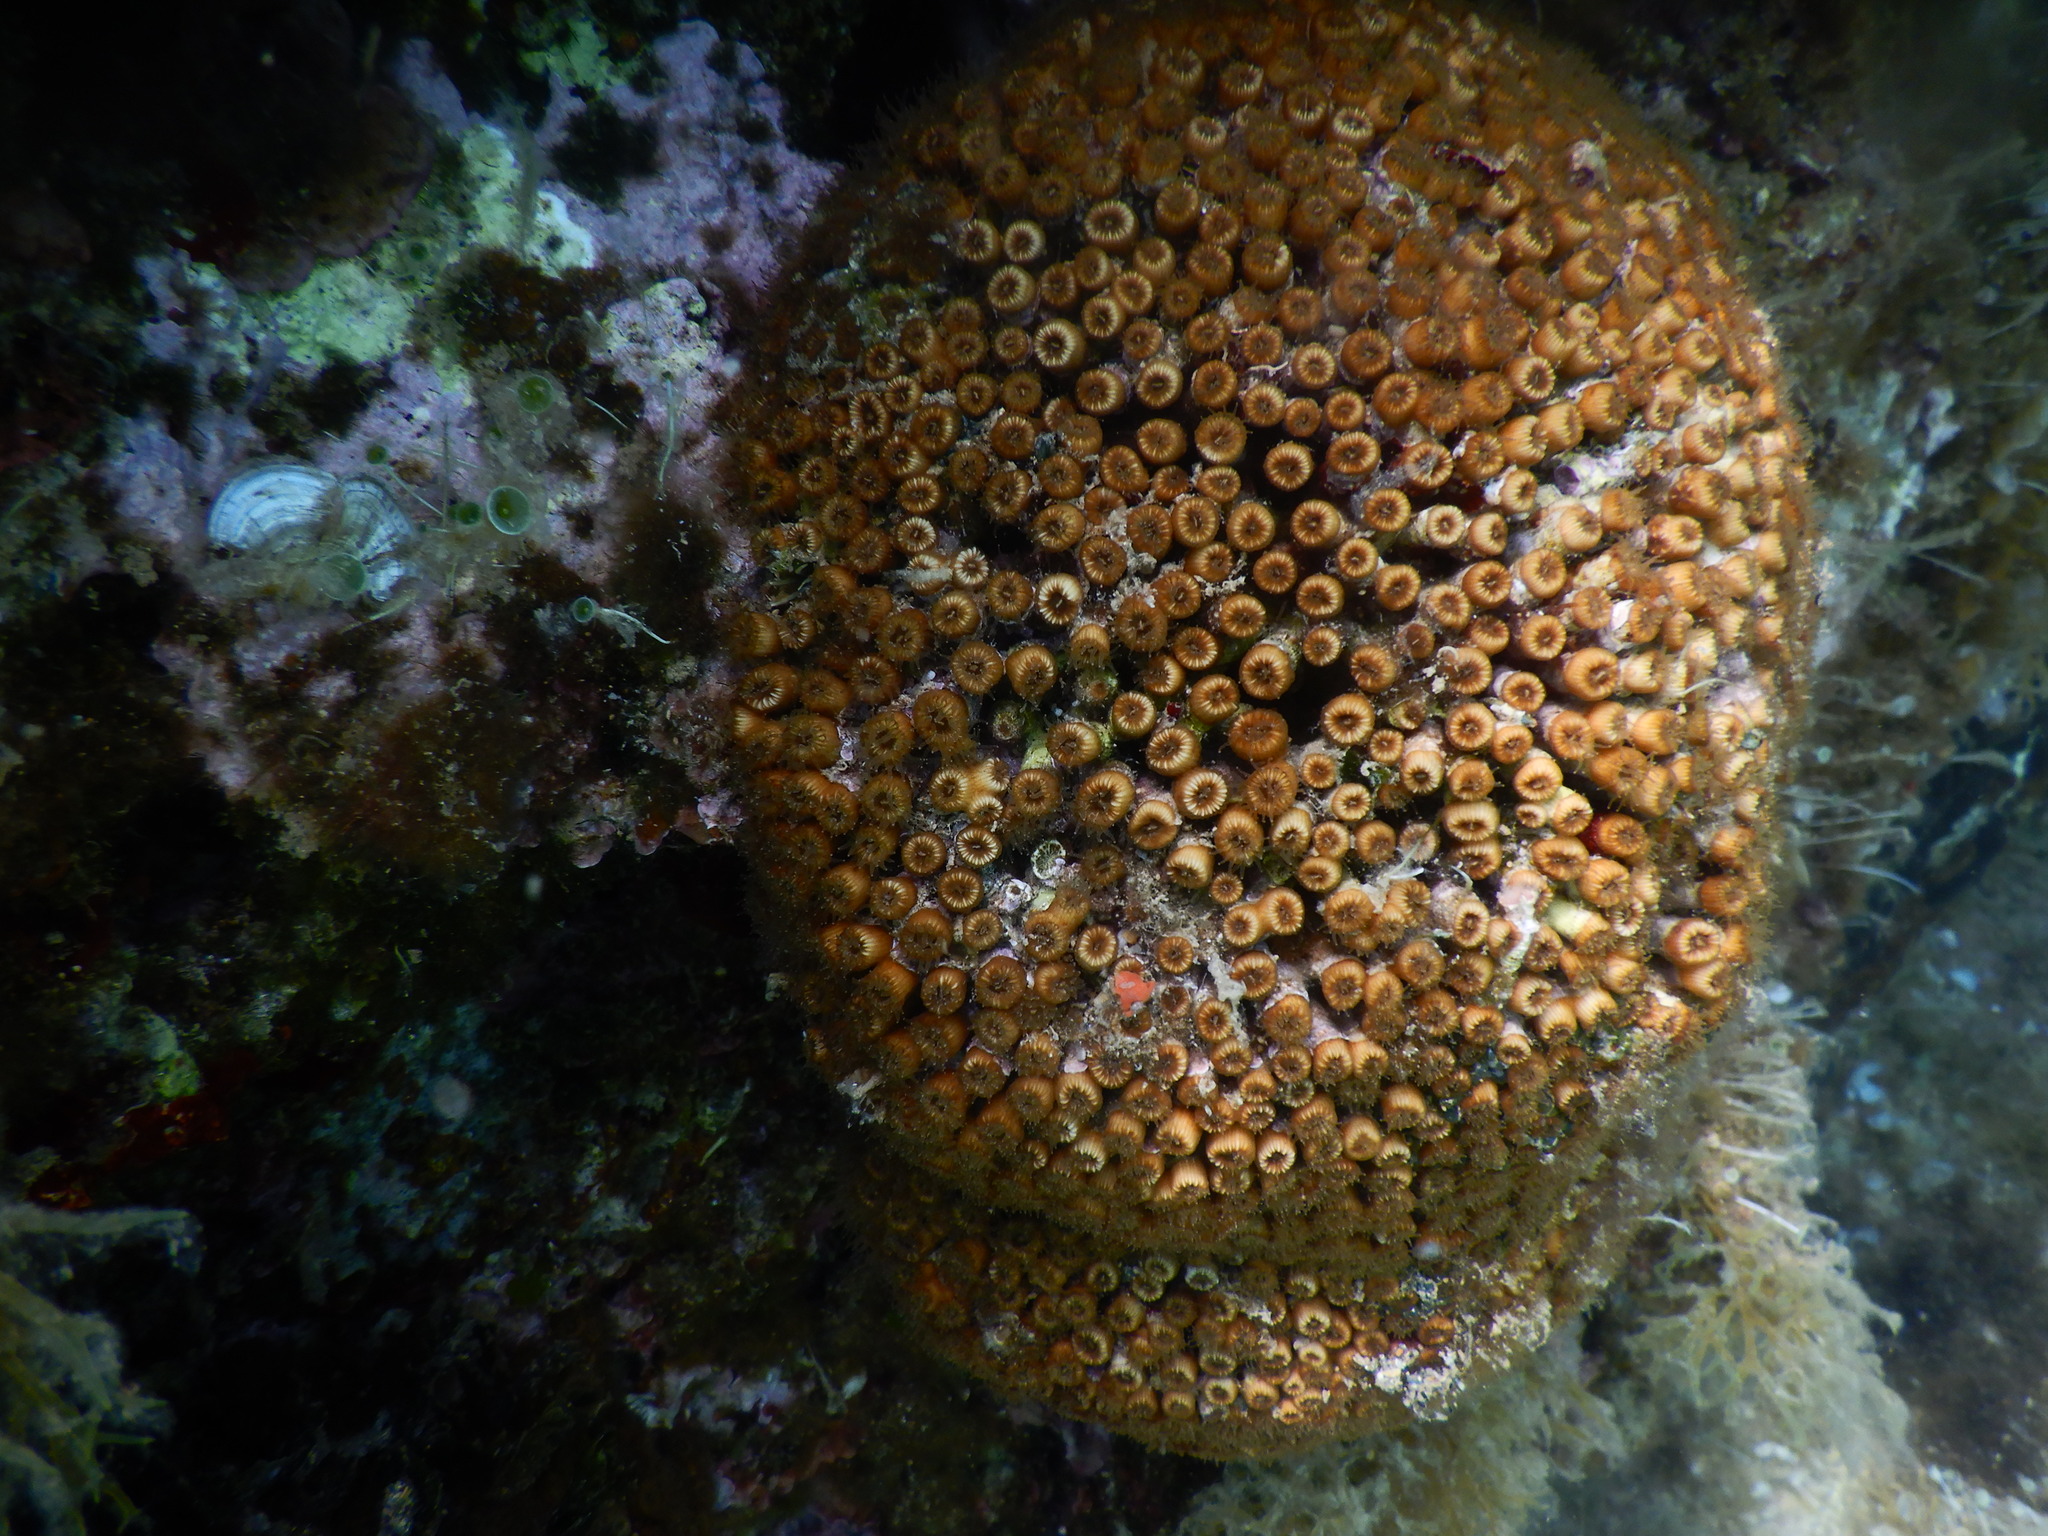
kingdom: Animalia
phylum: Cnidaria
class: Anthozoa
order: Scleractinia
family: Cladocoridae
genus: Cladocora
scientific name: Cladocora caespitosa
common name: Cladocora
